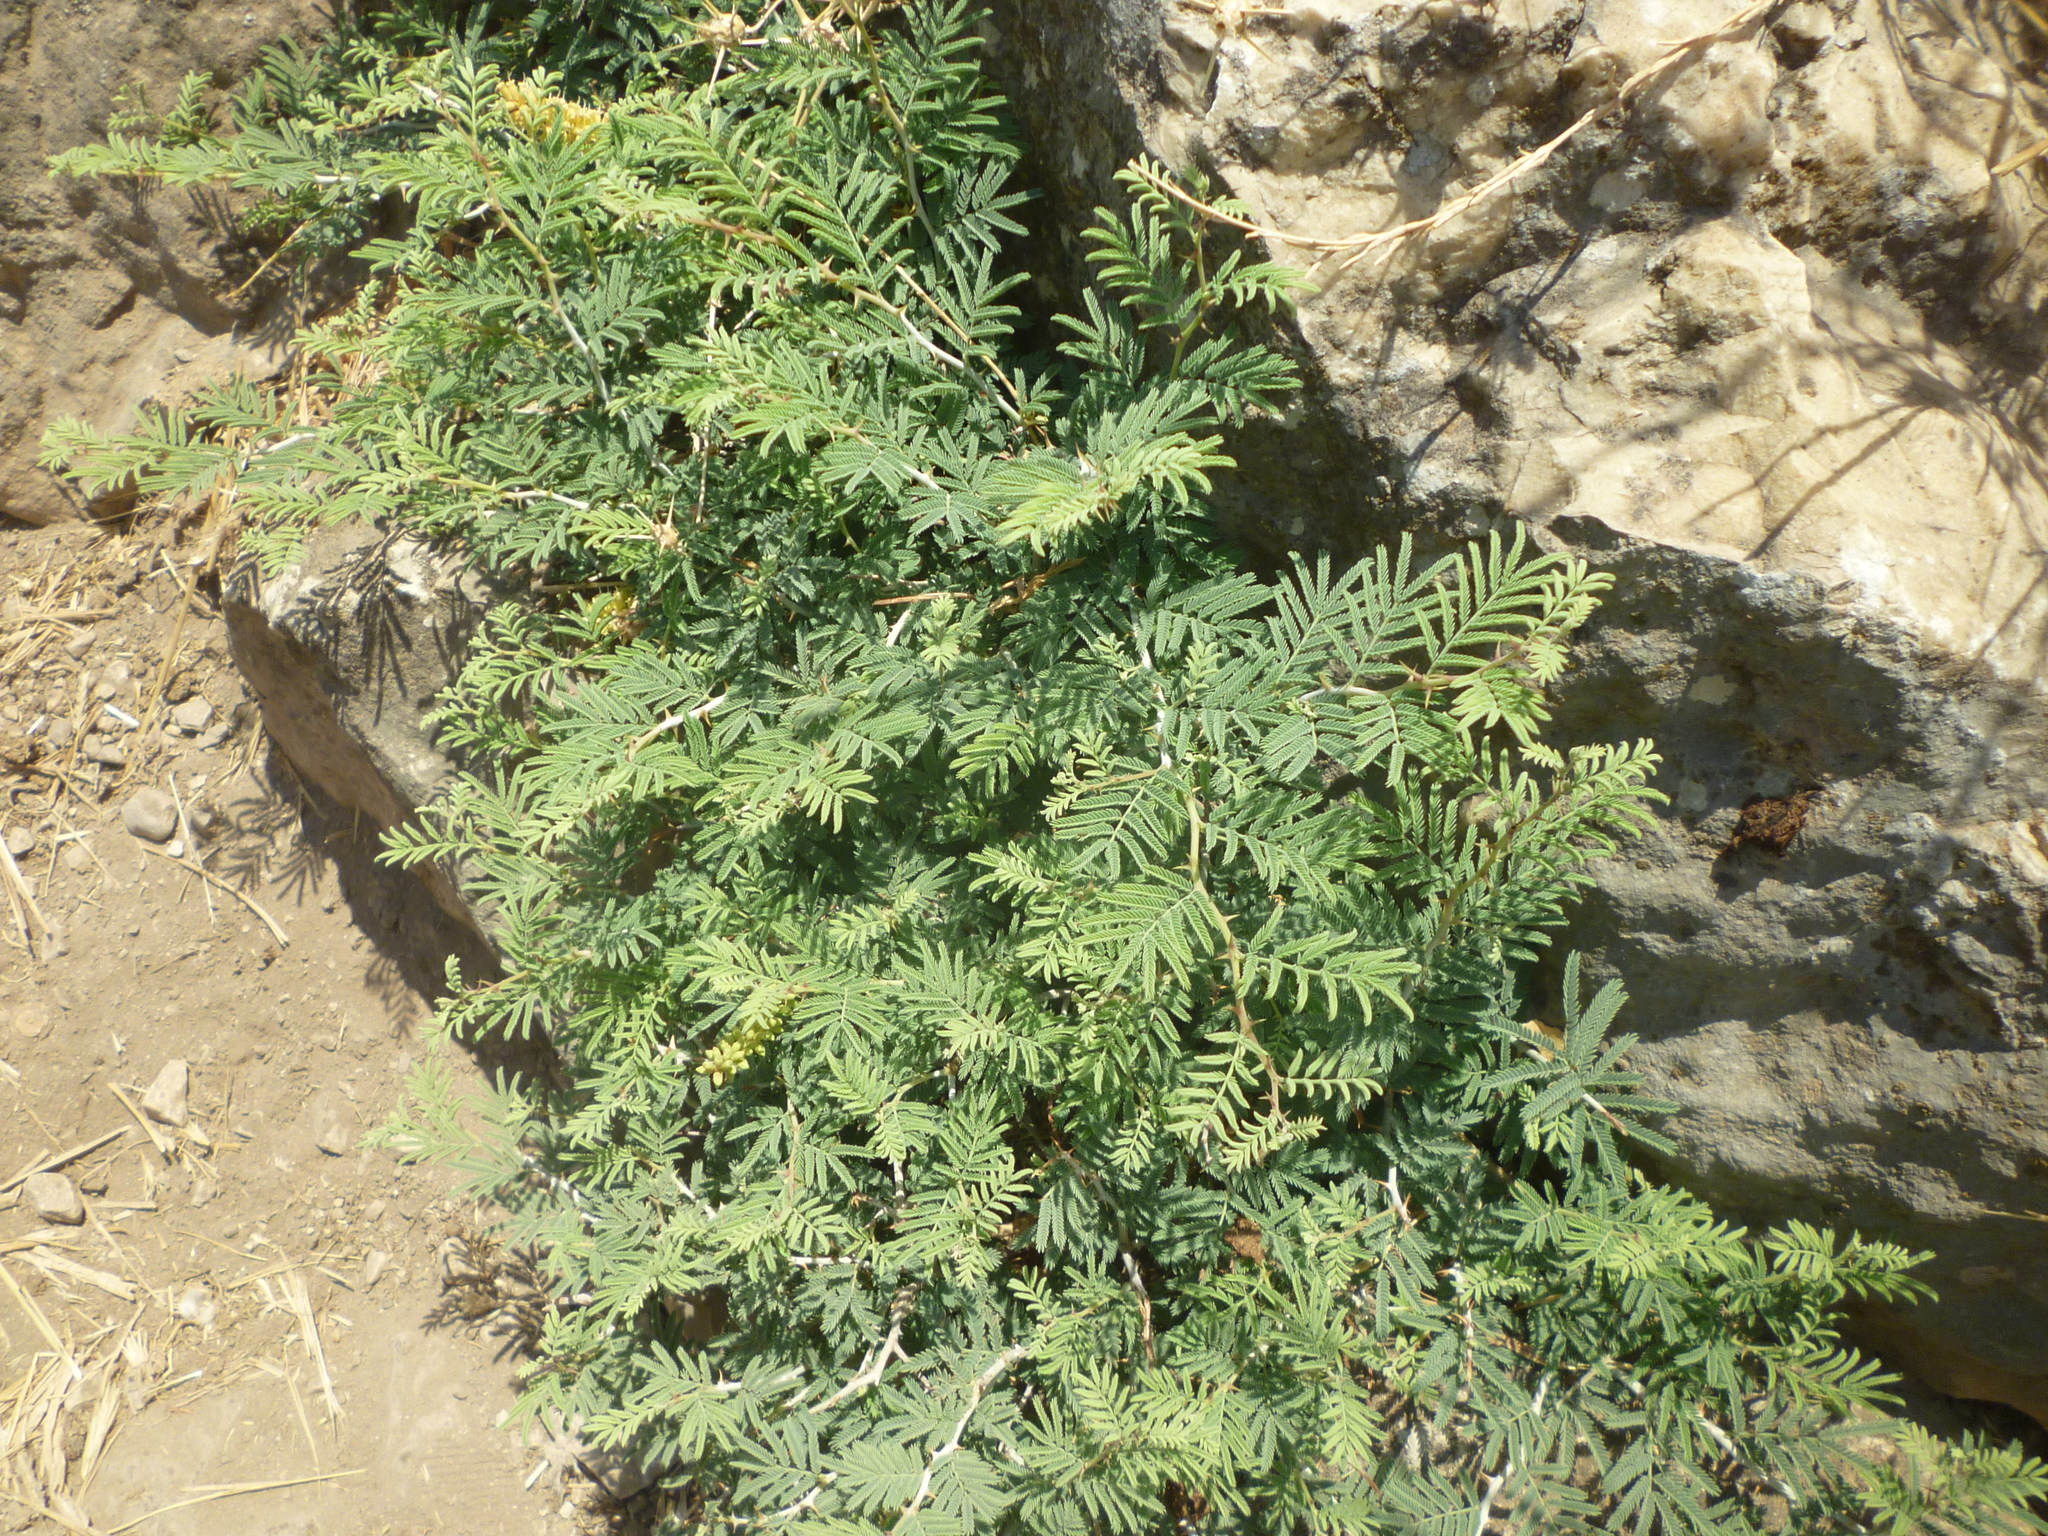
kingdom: Plantae
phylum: Tracheophyta
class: Magnoliopsida
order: Fabales
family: Fabaceae
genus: Prosopis
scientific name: Prosopis farcta
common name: Syrian mesquite
